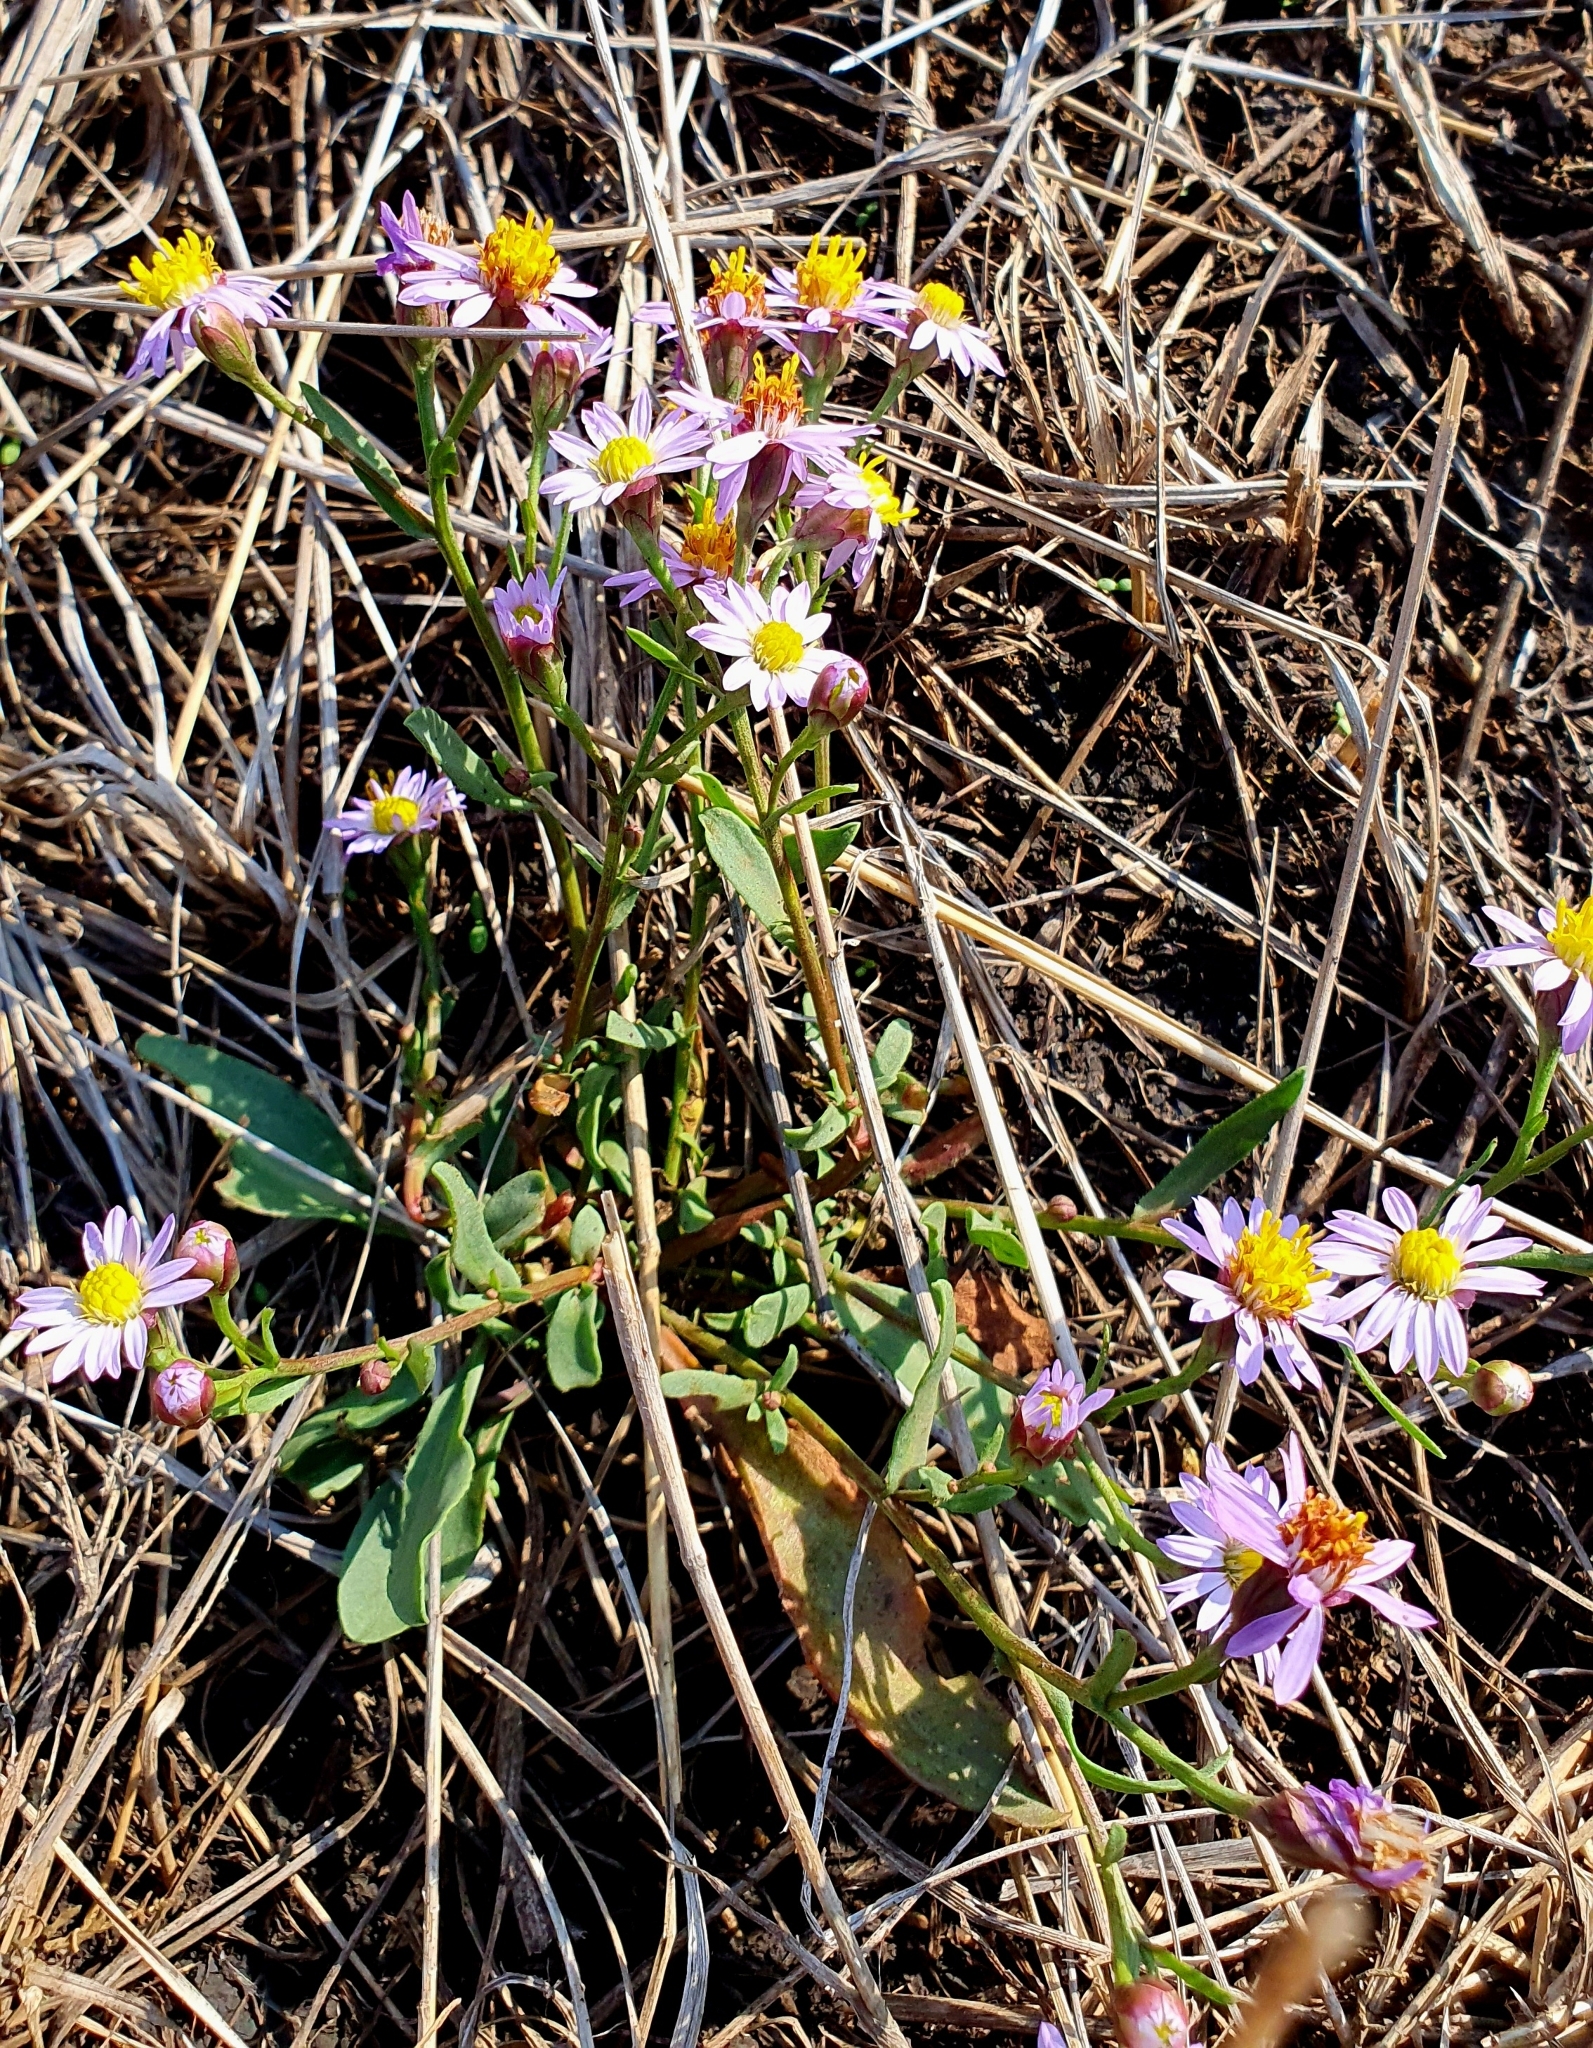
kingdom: Plantae
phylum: Tracheophyta
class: Magnoliopsida
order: Asterales
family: Asteraceae
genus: Tripolium
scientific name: Tripolium pannonicum
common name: Sea aster
